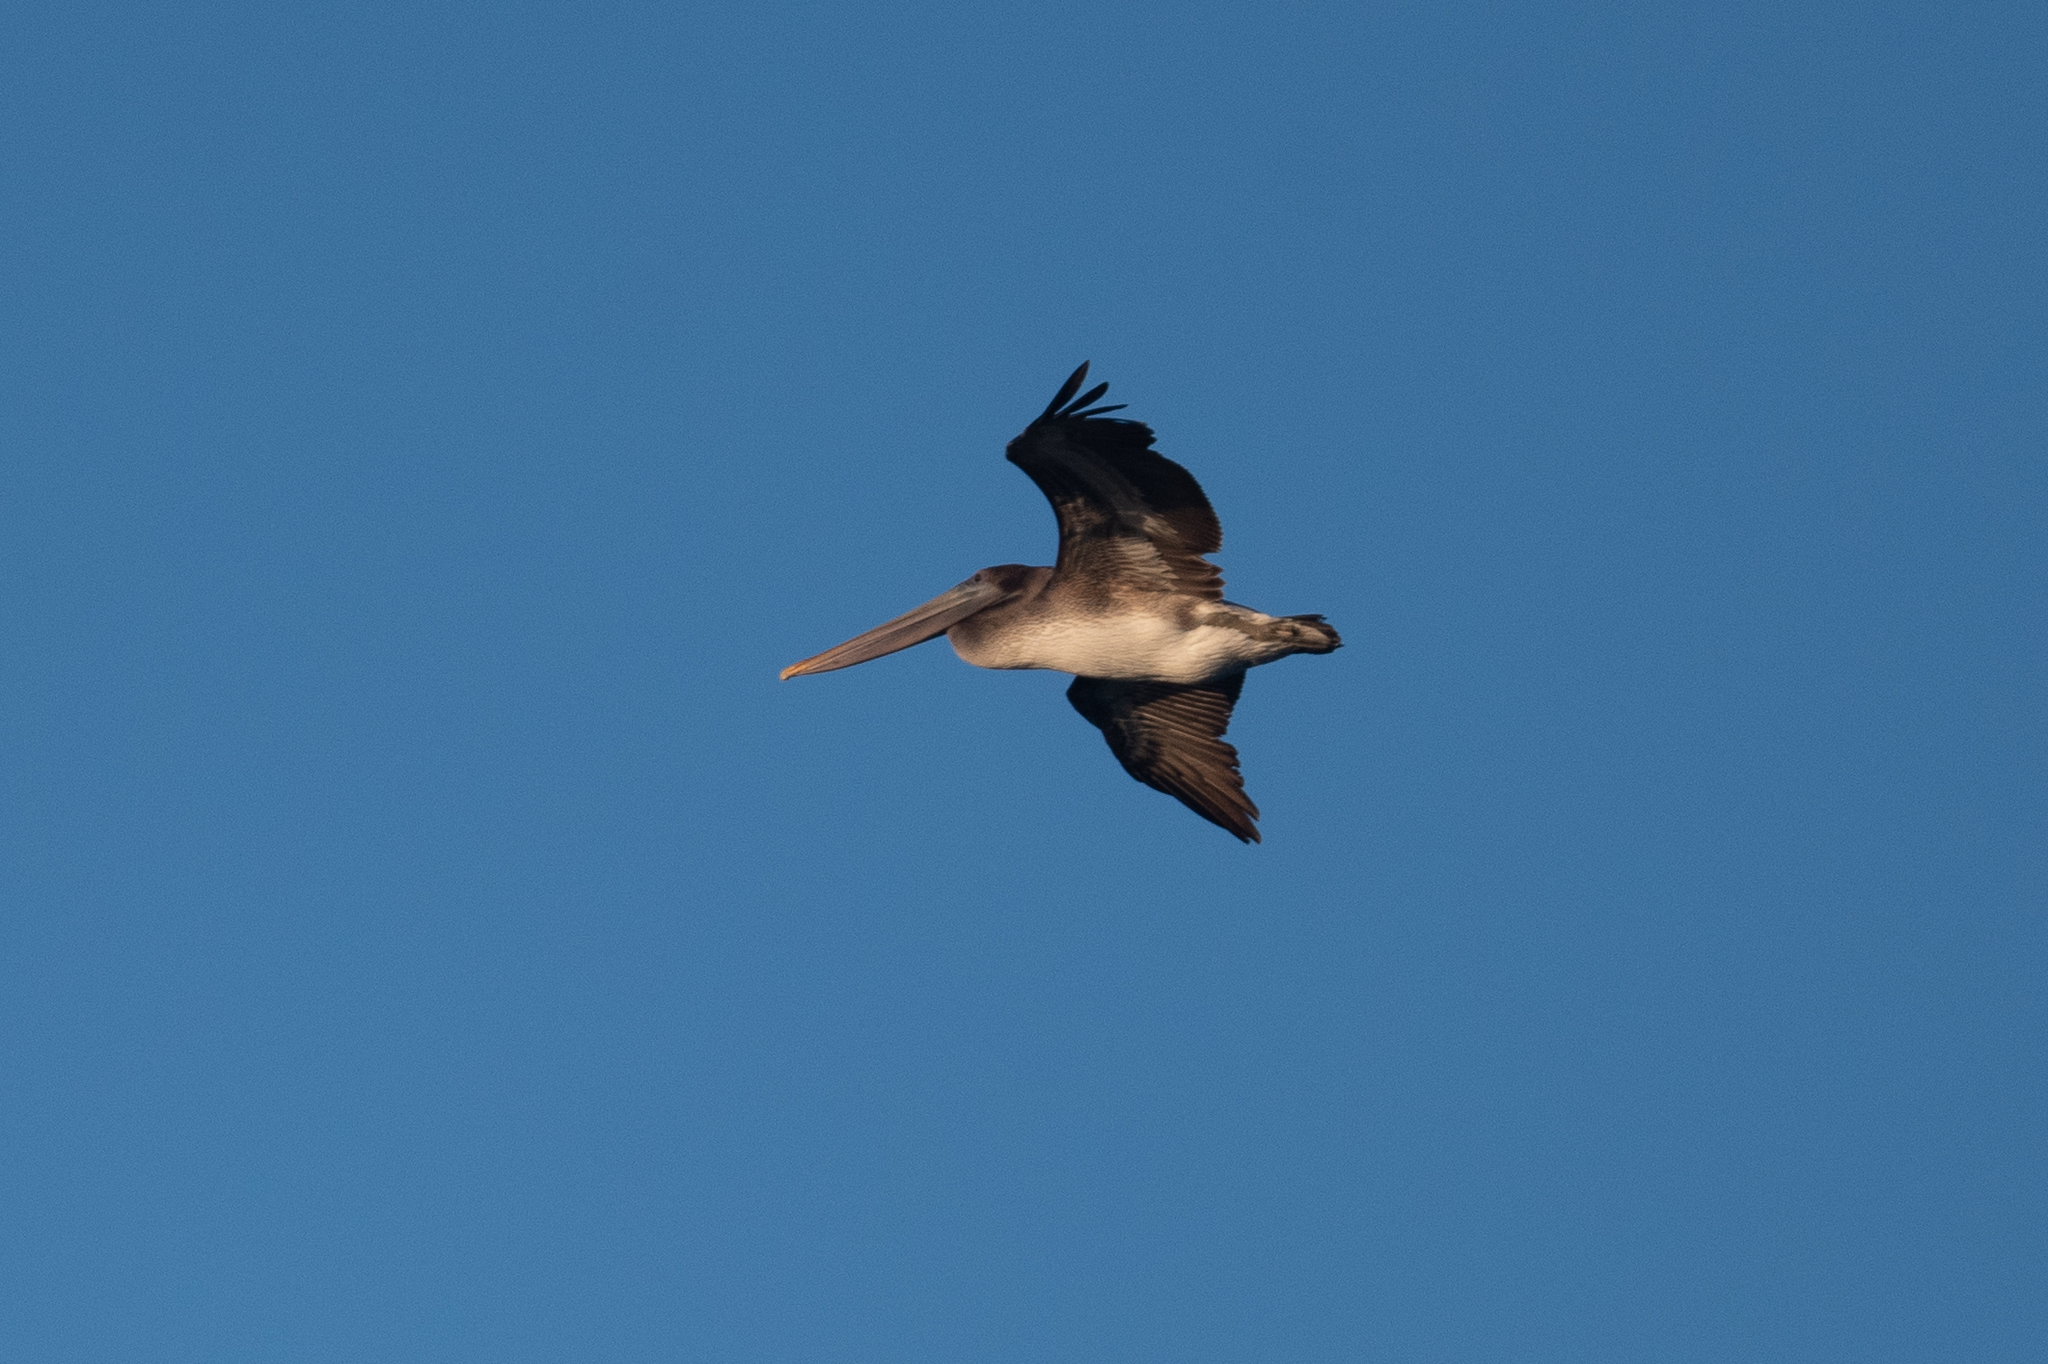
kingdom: Animalia
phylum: Chordata
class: Aves
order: Pelecaniformes
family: Pelecanidae
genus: Pelecanus
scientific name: Pelecanus occidentalis
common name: Brown pelican
